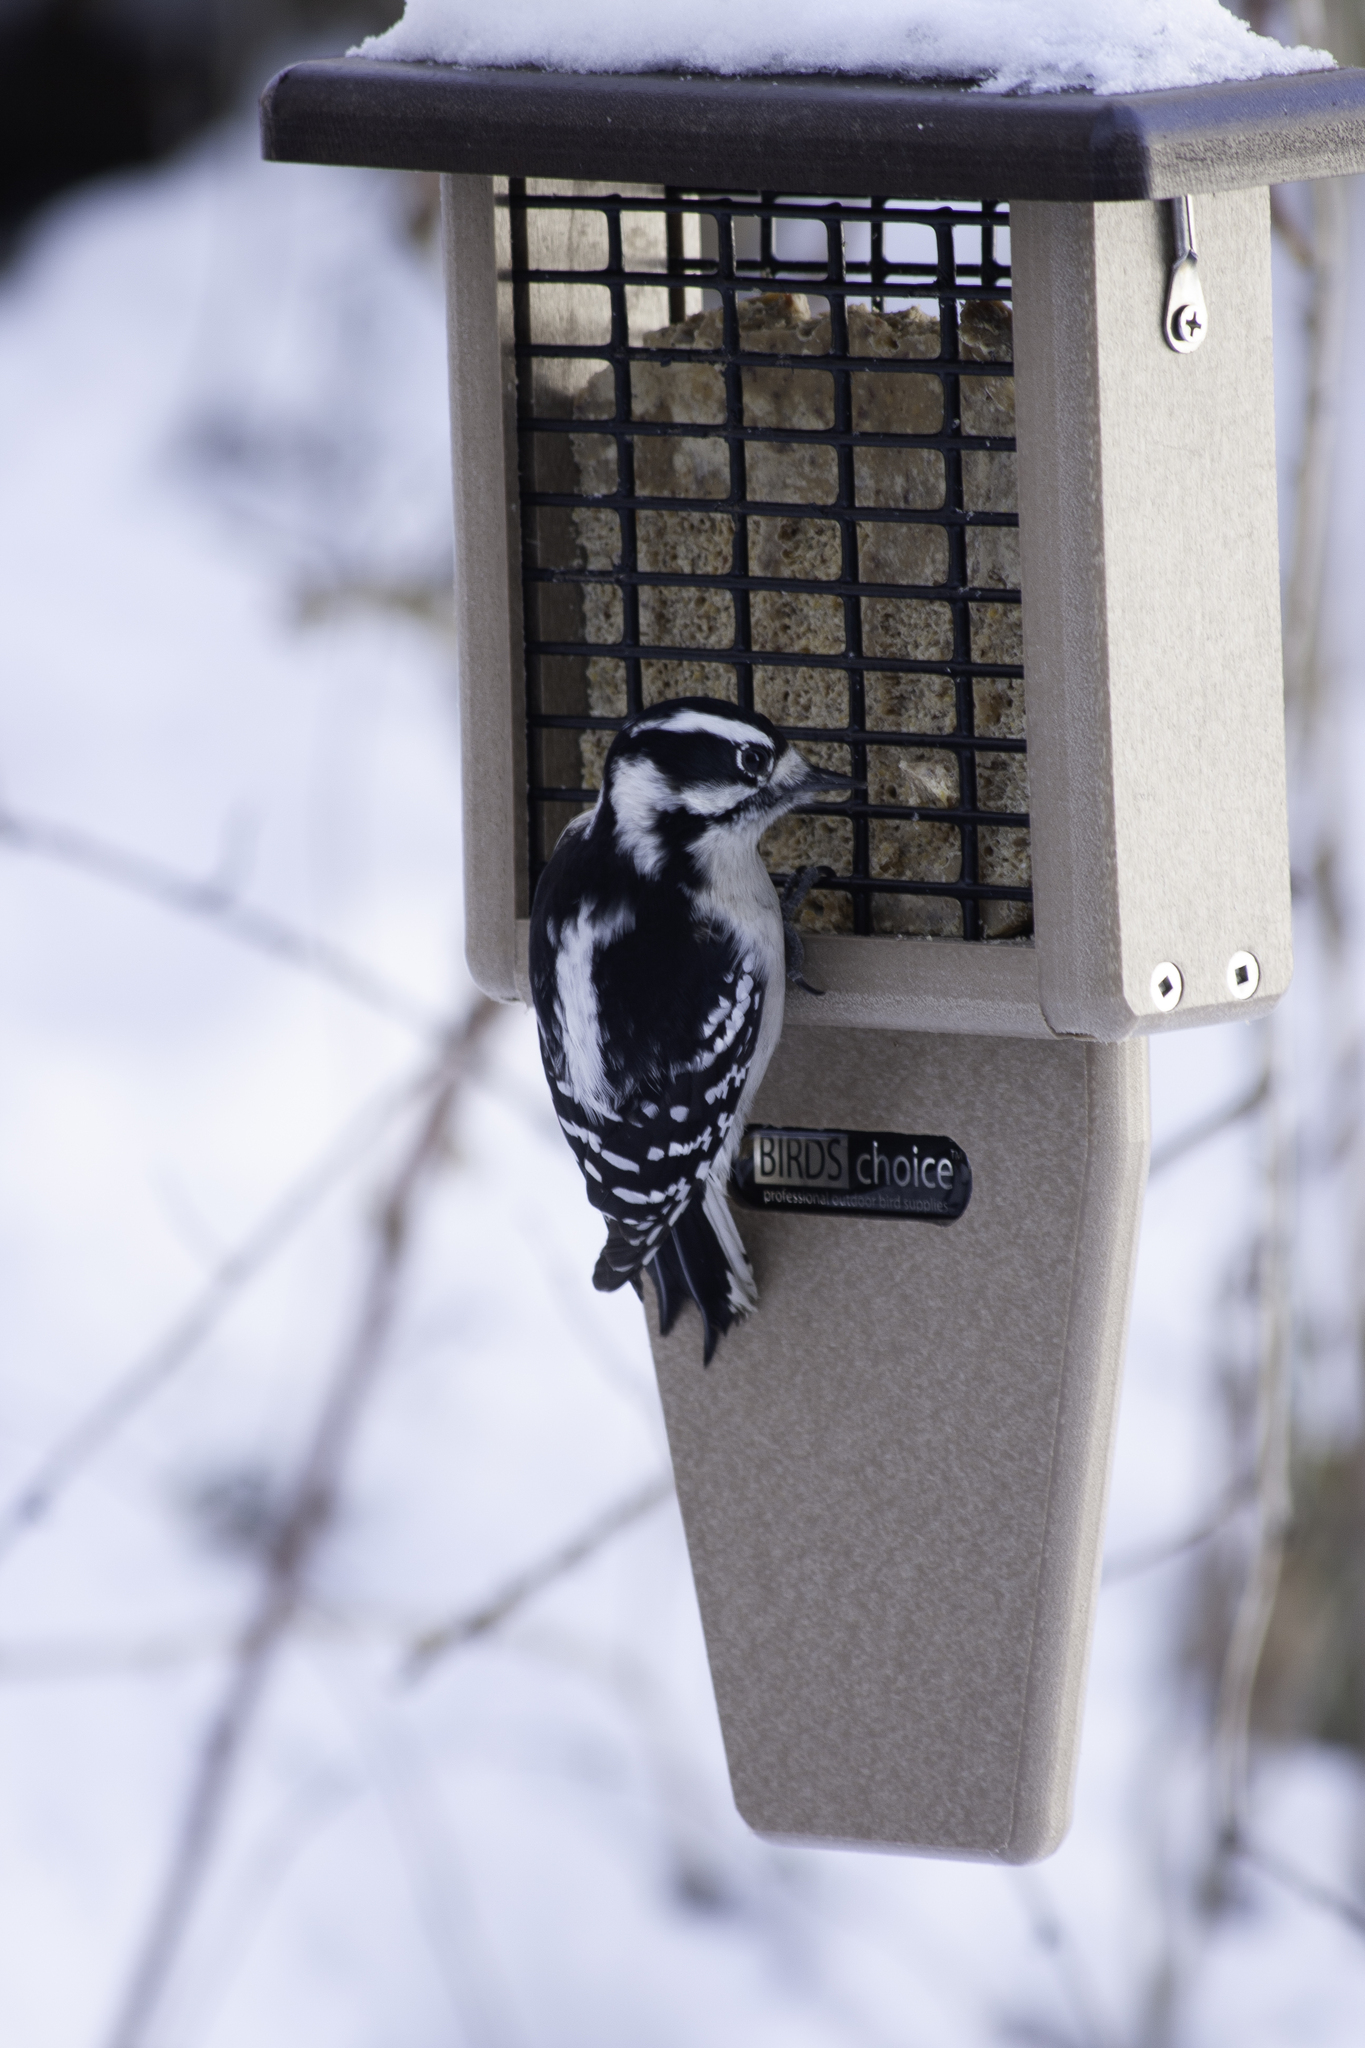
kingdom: Animalia
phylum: Chordata
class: Aves
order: Piciformes
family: Picidae
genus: Dryobates
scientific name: Dryobates pubescens
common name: Downy woodpecker
